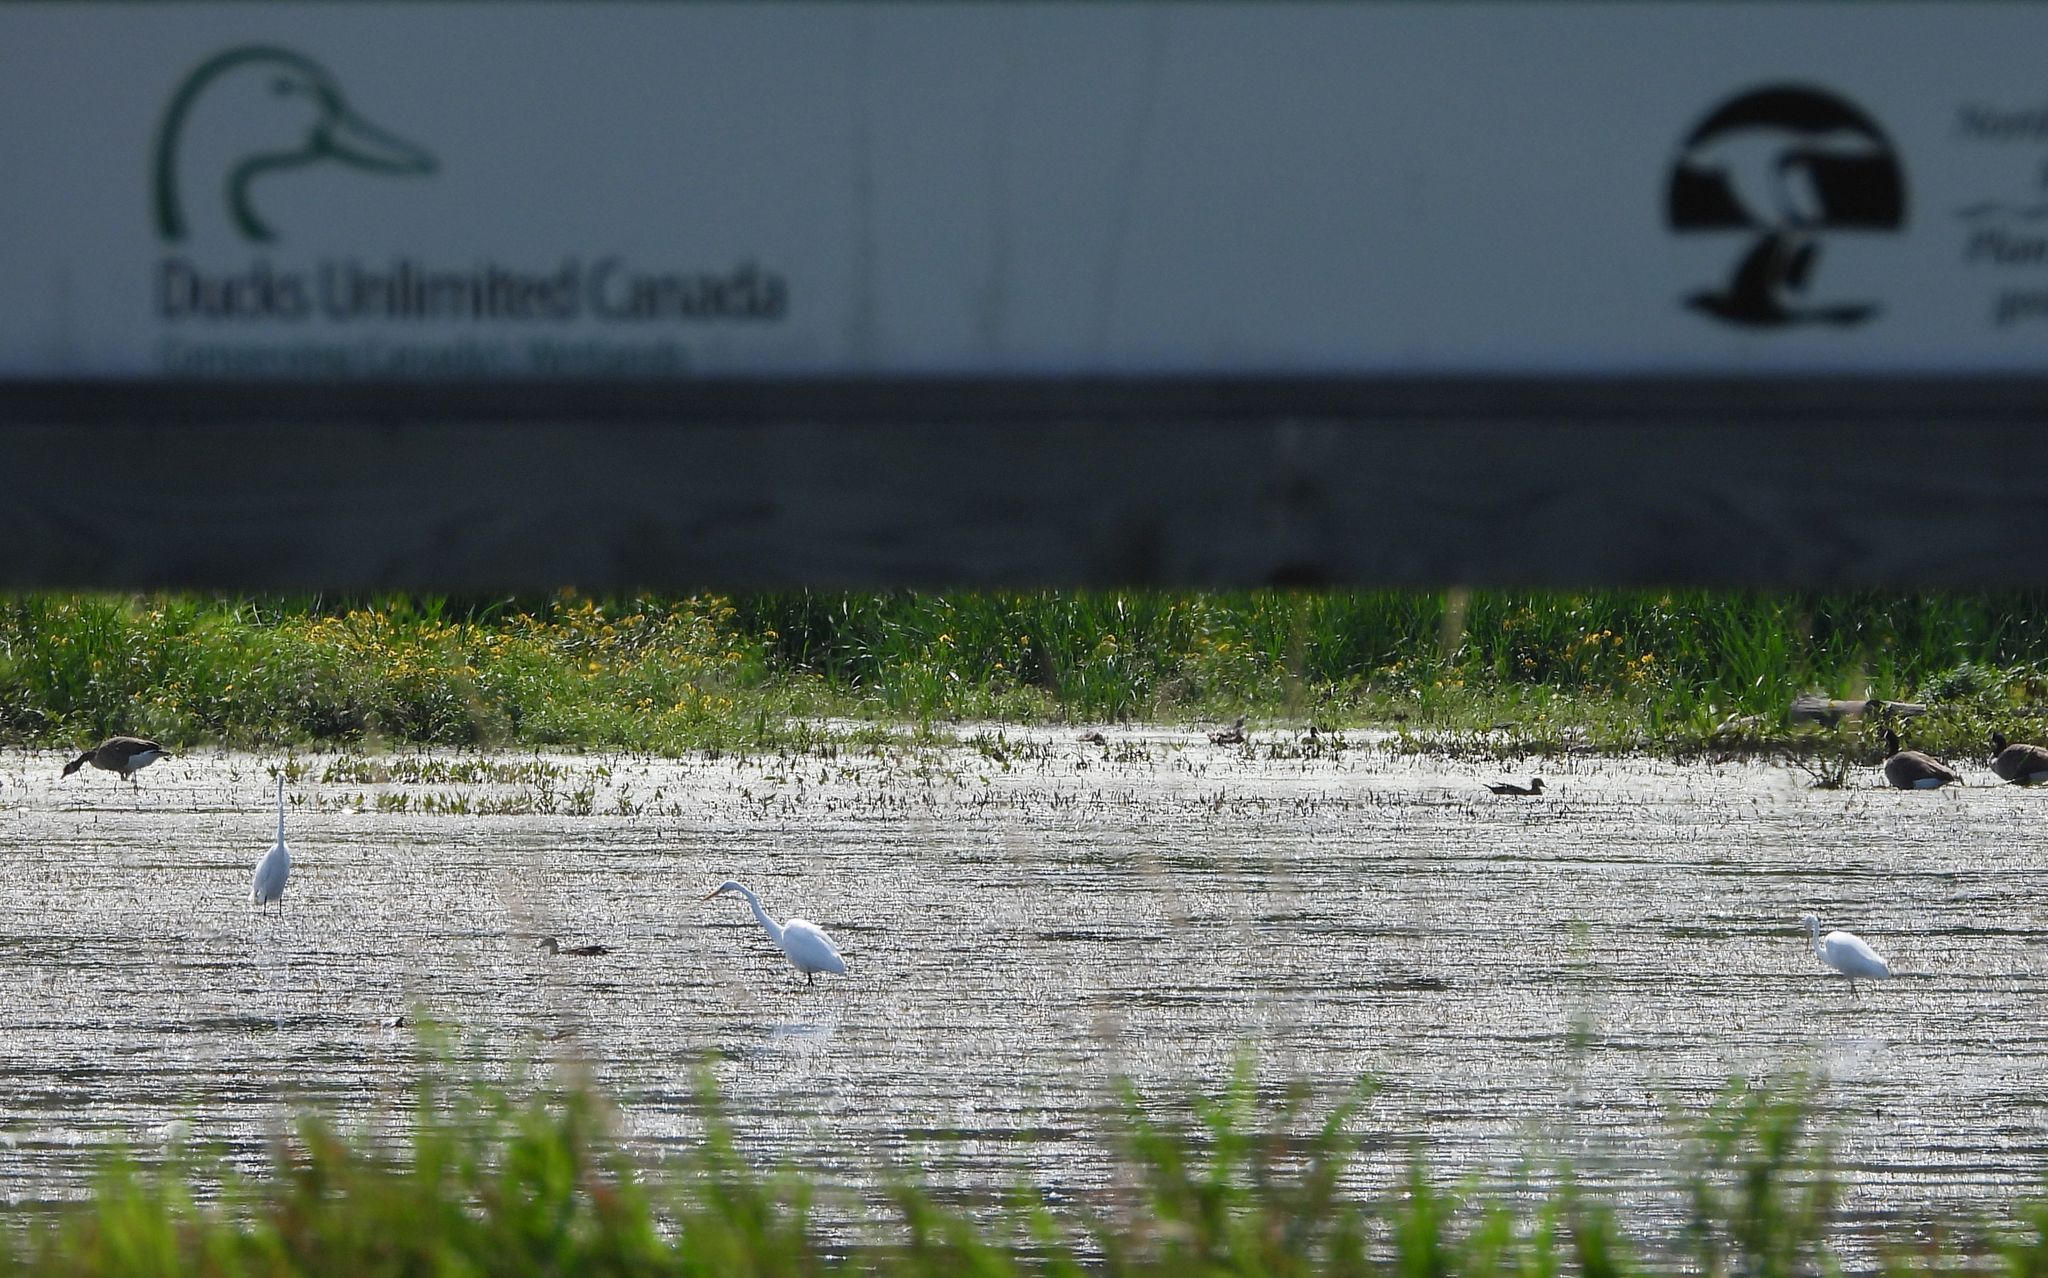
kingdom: Animalia
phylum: Chordata
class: Aves
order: Pelecaniformes
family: Ardeidae
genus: Ardea
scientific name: Ardea alba
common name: Great egret
